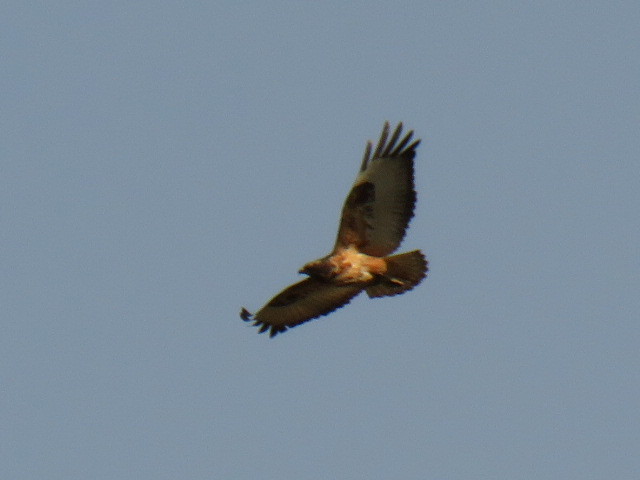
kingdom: Animalia
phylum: Chordata
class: Aves
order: Accipitriformes
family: Accipitridae
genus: Buteo
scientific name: Buteo rufofuscus
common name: Jackal buzzard
